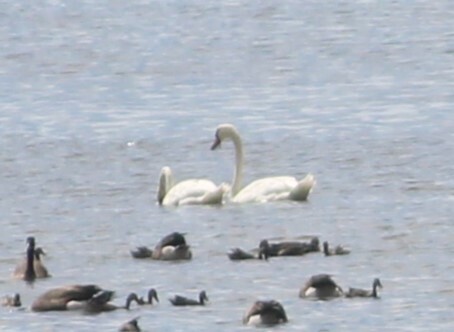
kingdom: Animalia
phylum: Chordata
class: Aves
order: Anseriformes
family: Anatidae
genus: Cygnus
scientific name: Cygnus olor
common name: Mute swan
